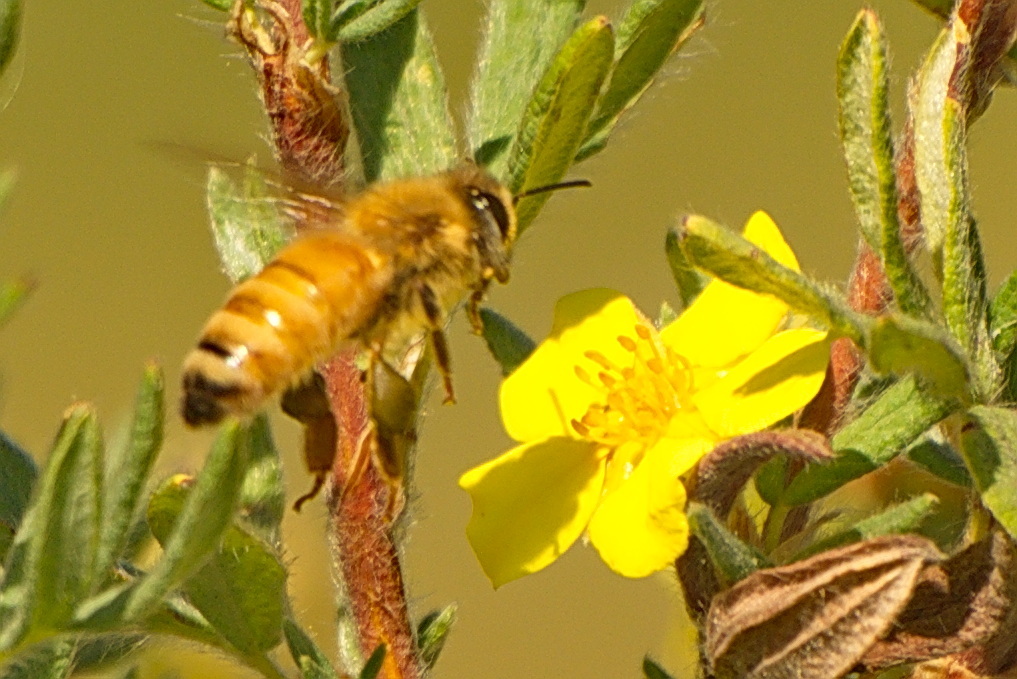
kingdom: Animalia
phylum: Arthropoda
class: Insecta
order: Hymenoptera
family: Apidae
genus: Apis
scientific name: Apis mellifera
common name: Honey bee
